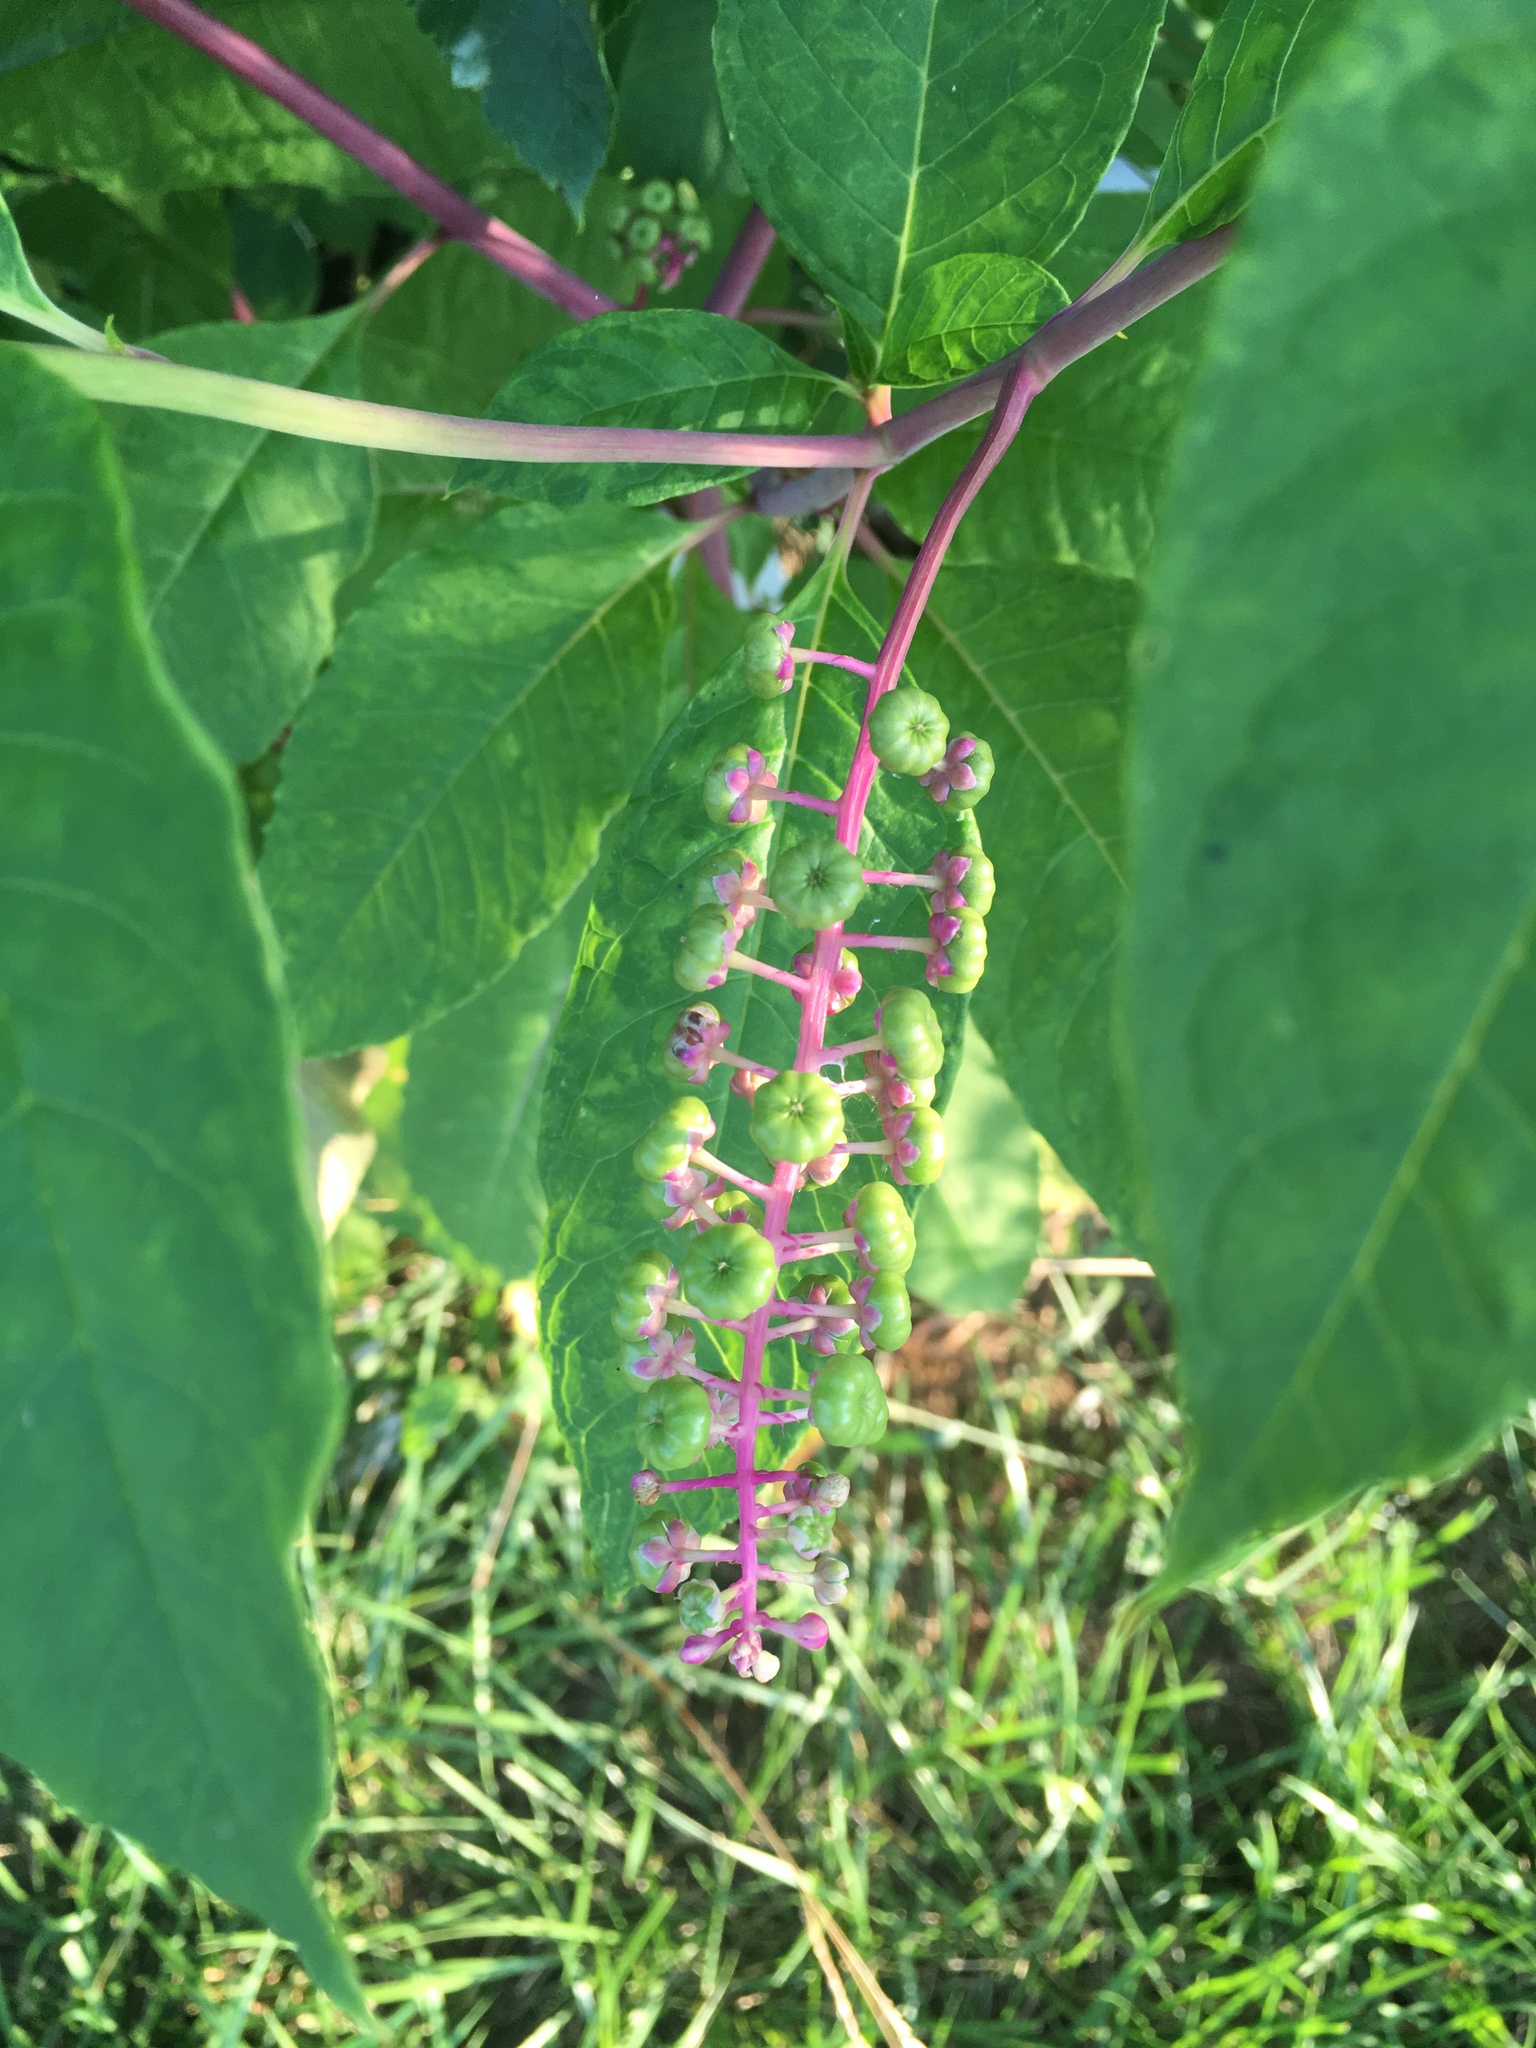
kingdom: Plantae
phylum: Tracheophyta
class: Magnoliopsida
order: Caryophyllales
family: Phytolaccaceae
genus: Phytolacca
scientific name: Phytolacca americana
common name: American pokeweed
